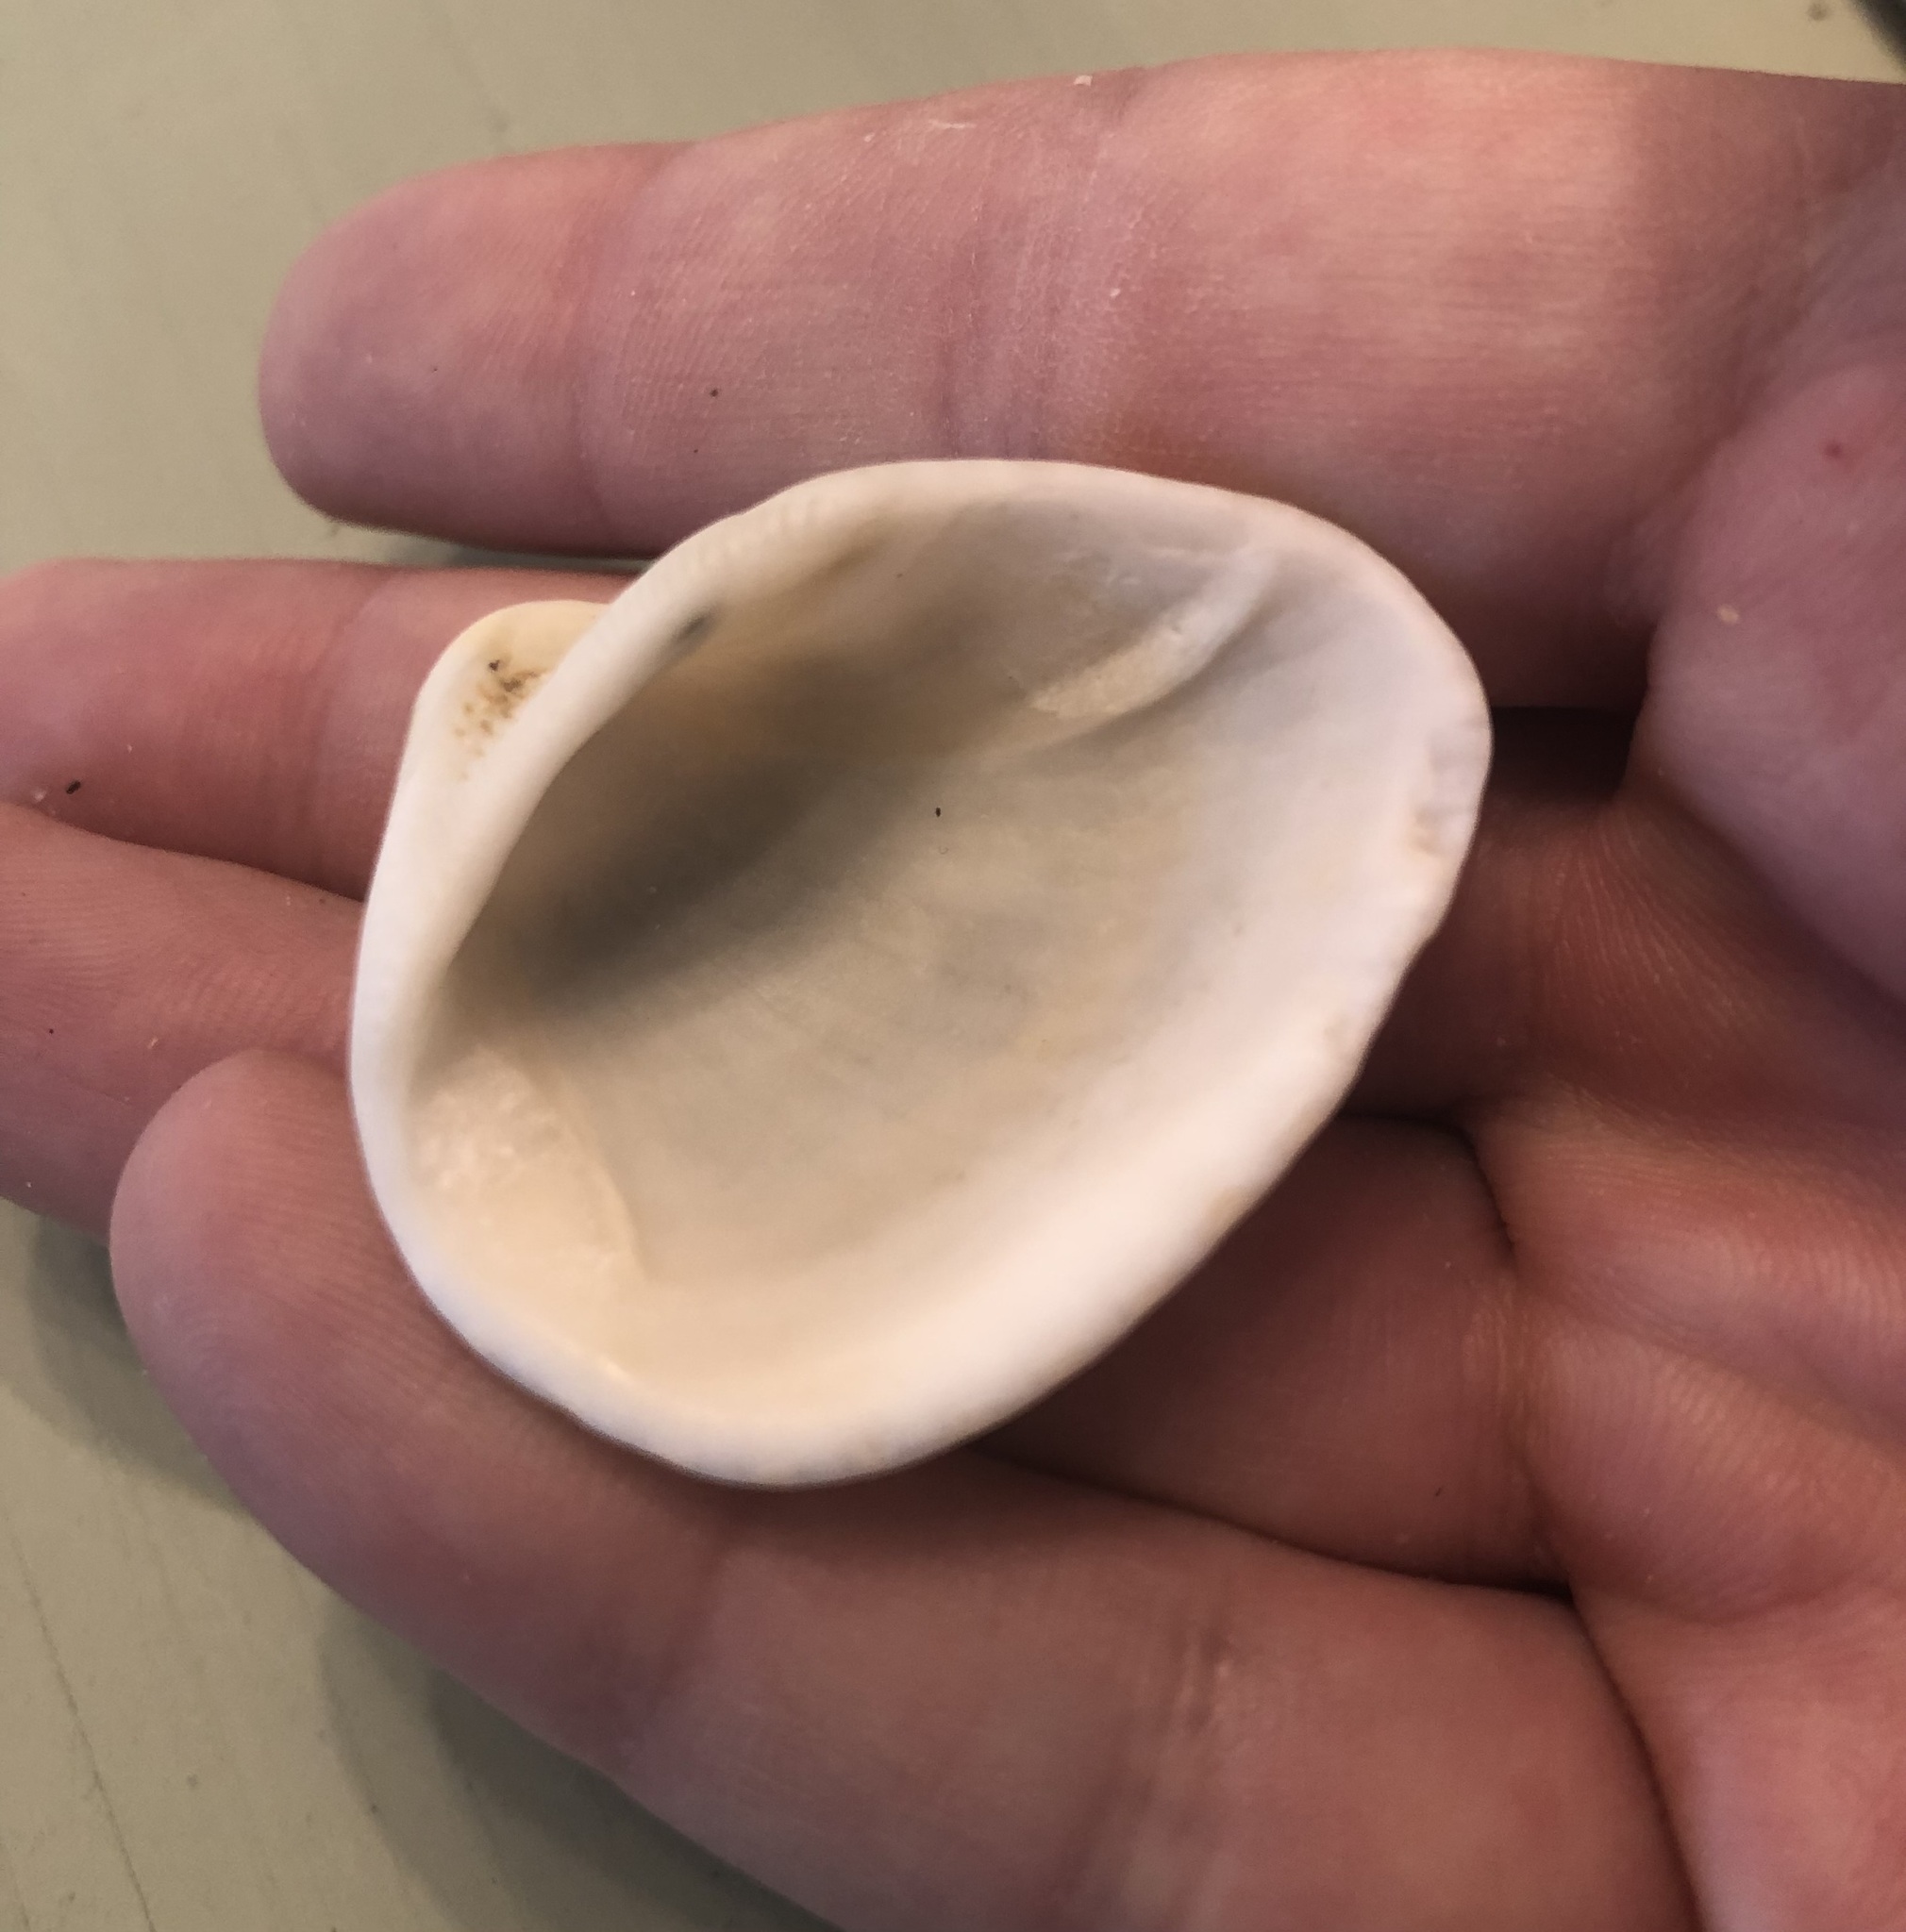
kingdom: Animalia
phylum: Mollusca
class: Bivalvia
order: Arcida
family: Noetiidae
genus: Noetia
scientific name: Noetia ponderosa
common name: Ponderous ark
